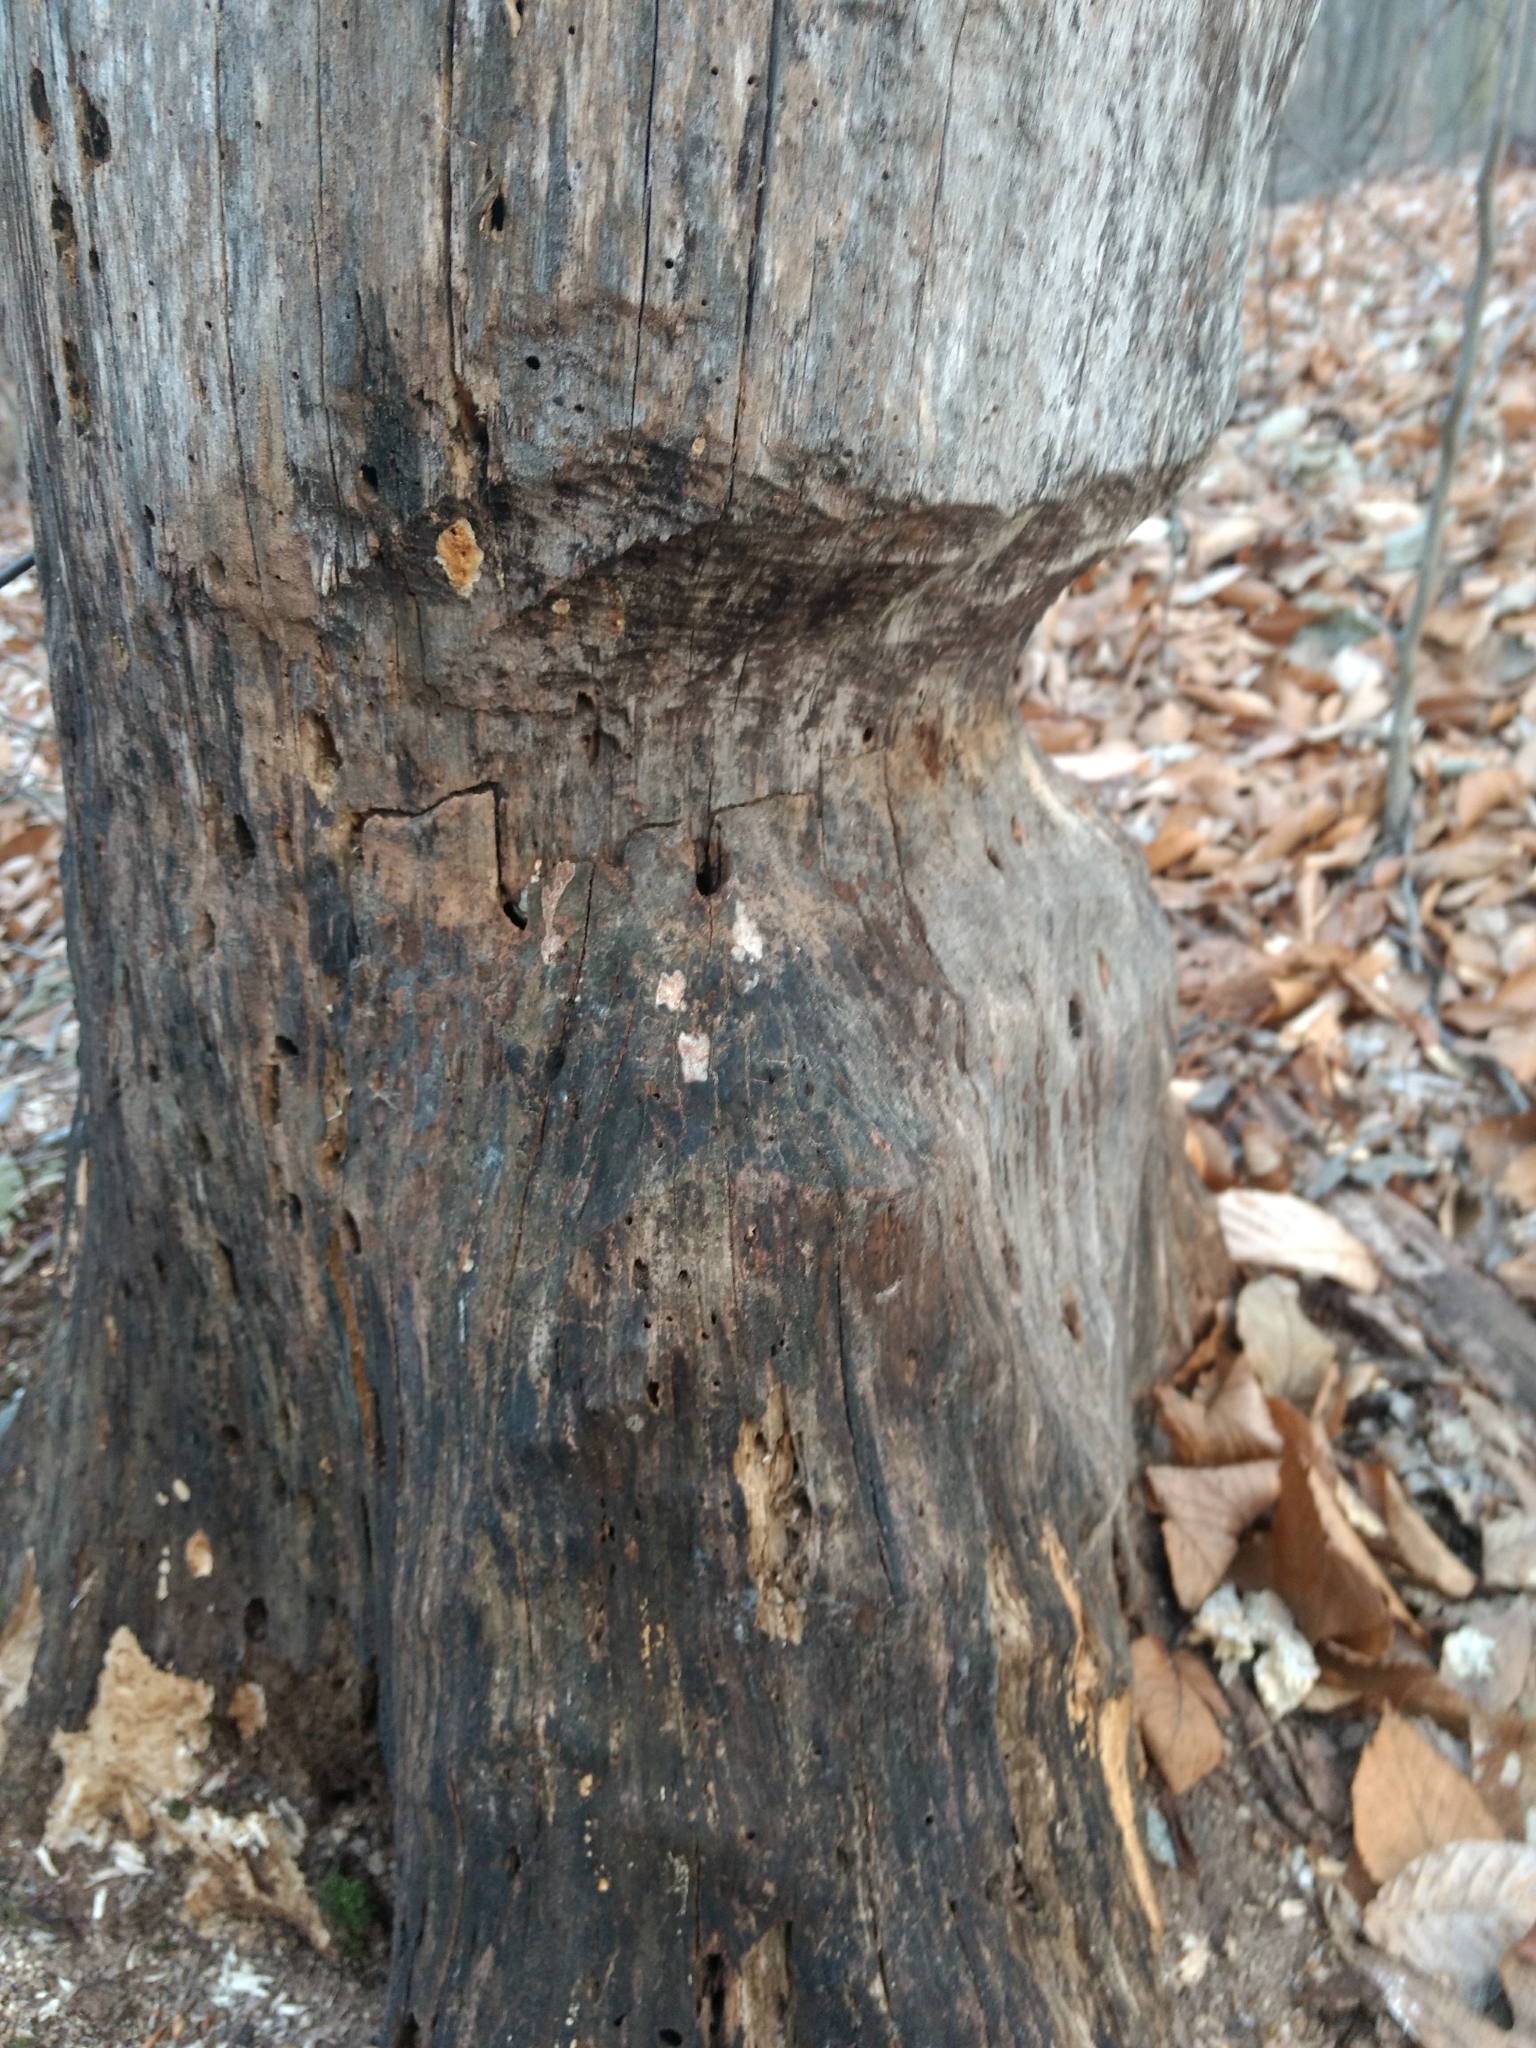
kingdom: Animalia
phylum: Chordata
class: Mammalia
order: Rodentia
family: Castoridae
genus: Castor
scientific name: Castor canadensis
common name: American beaver
